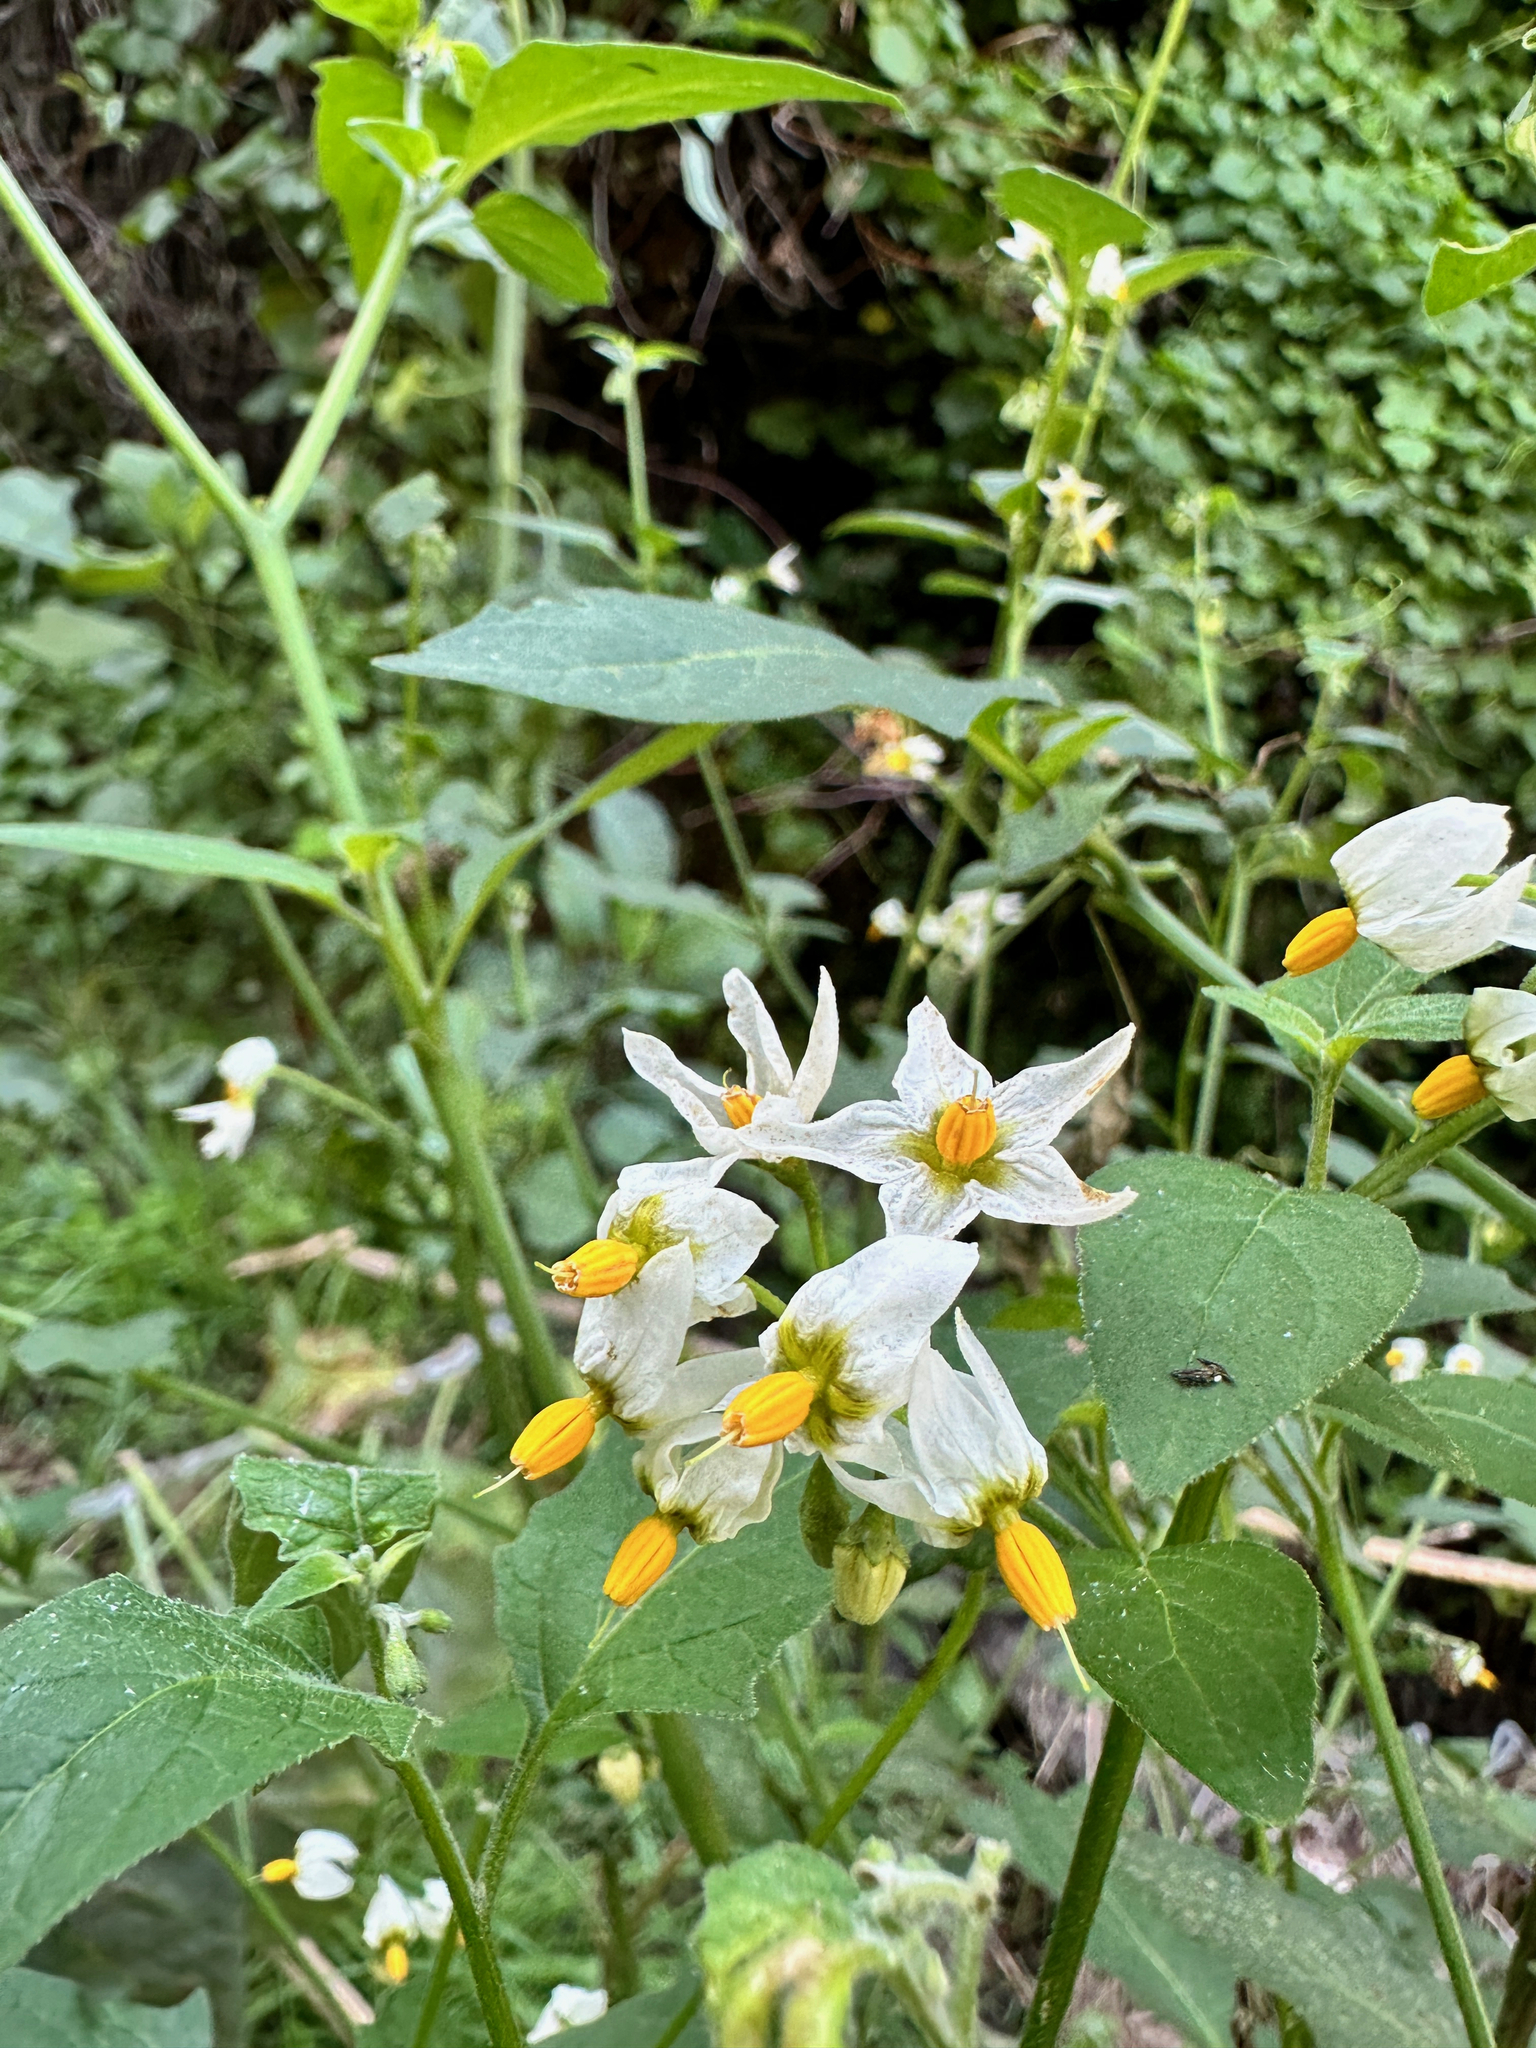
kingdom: Plantae
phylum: Tracheophyta
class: Magnoliopsida
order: Solanales
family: Solanaceae
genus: Solanum
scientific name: Solanum douglasii
